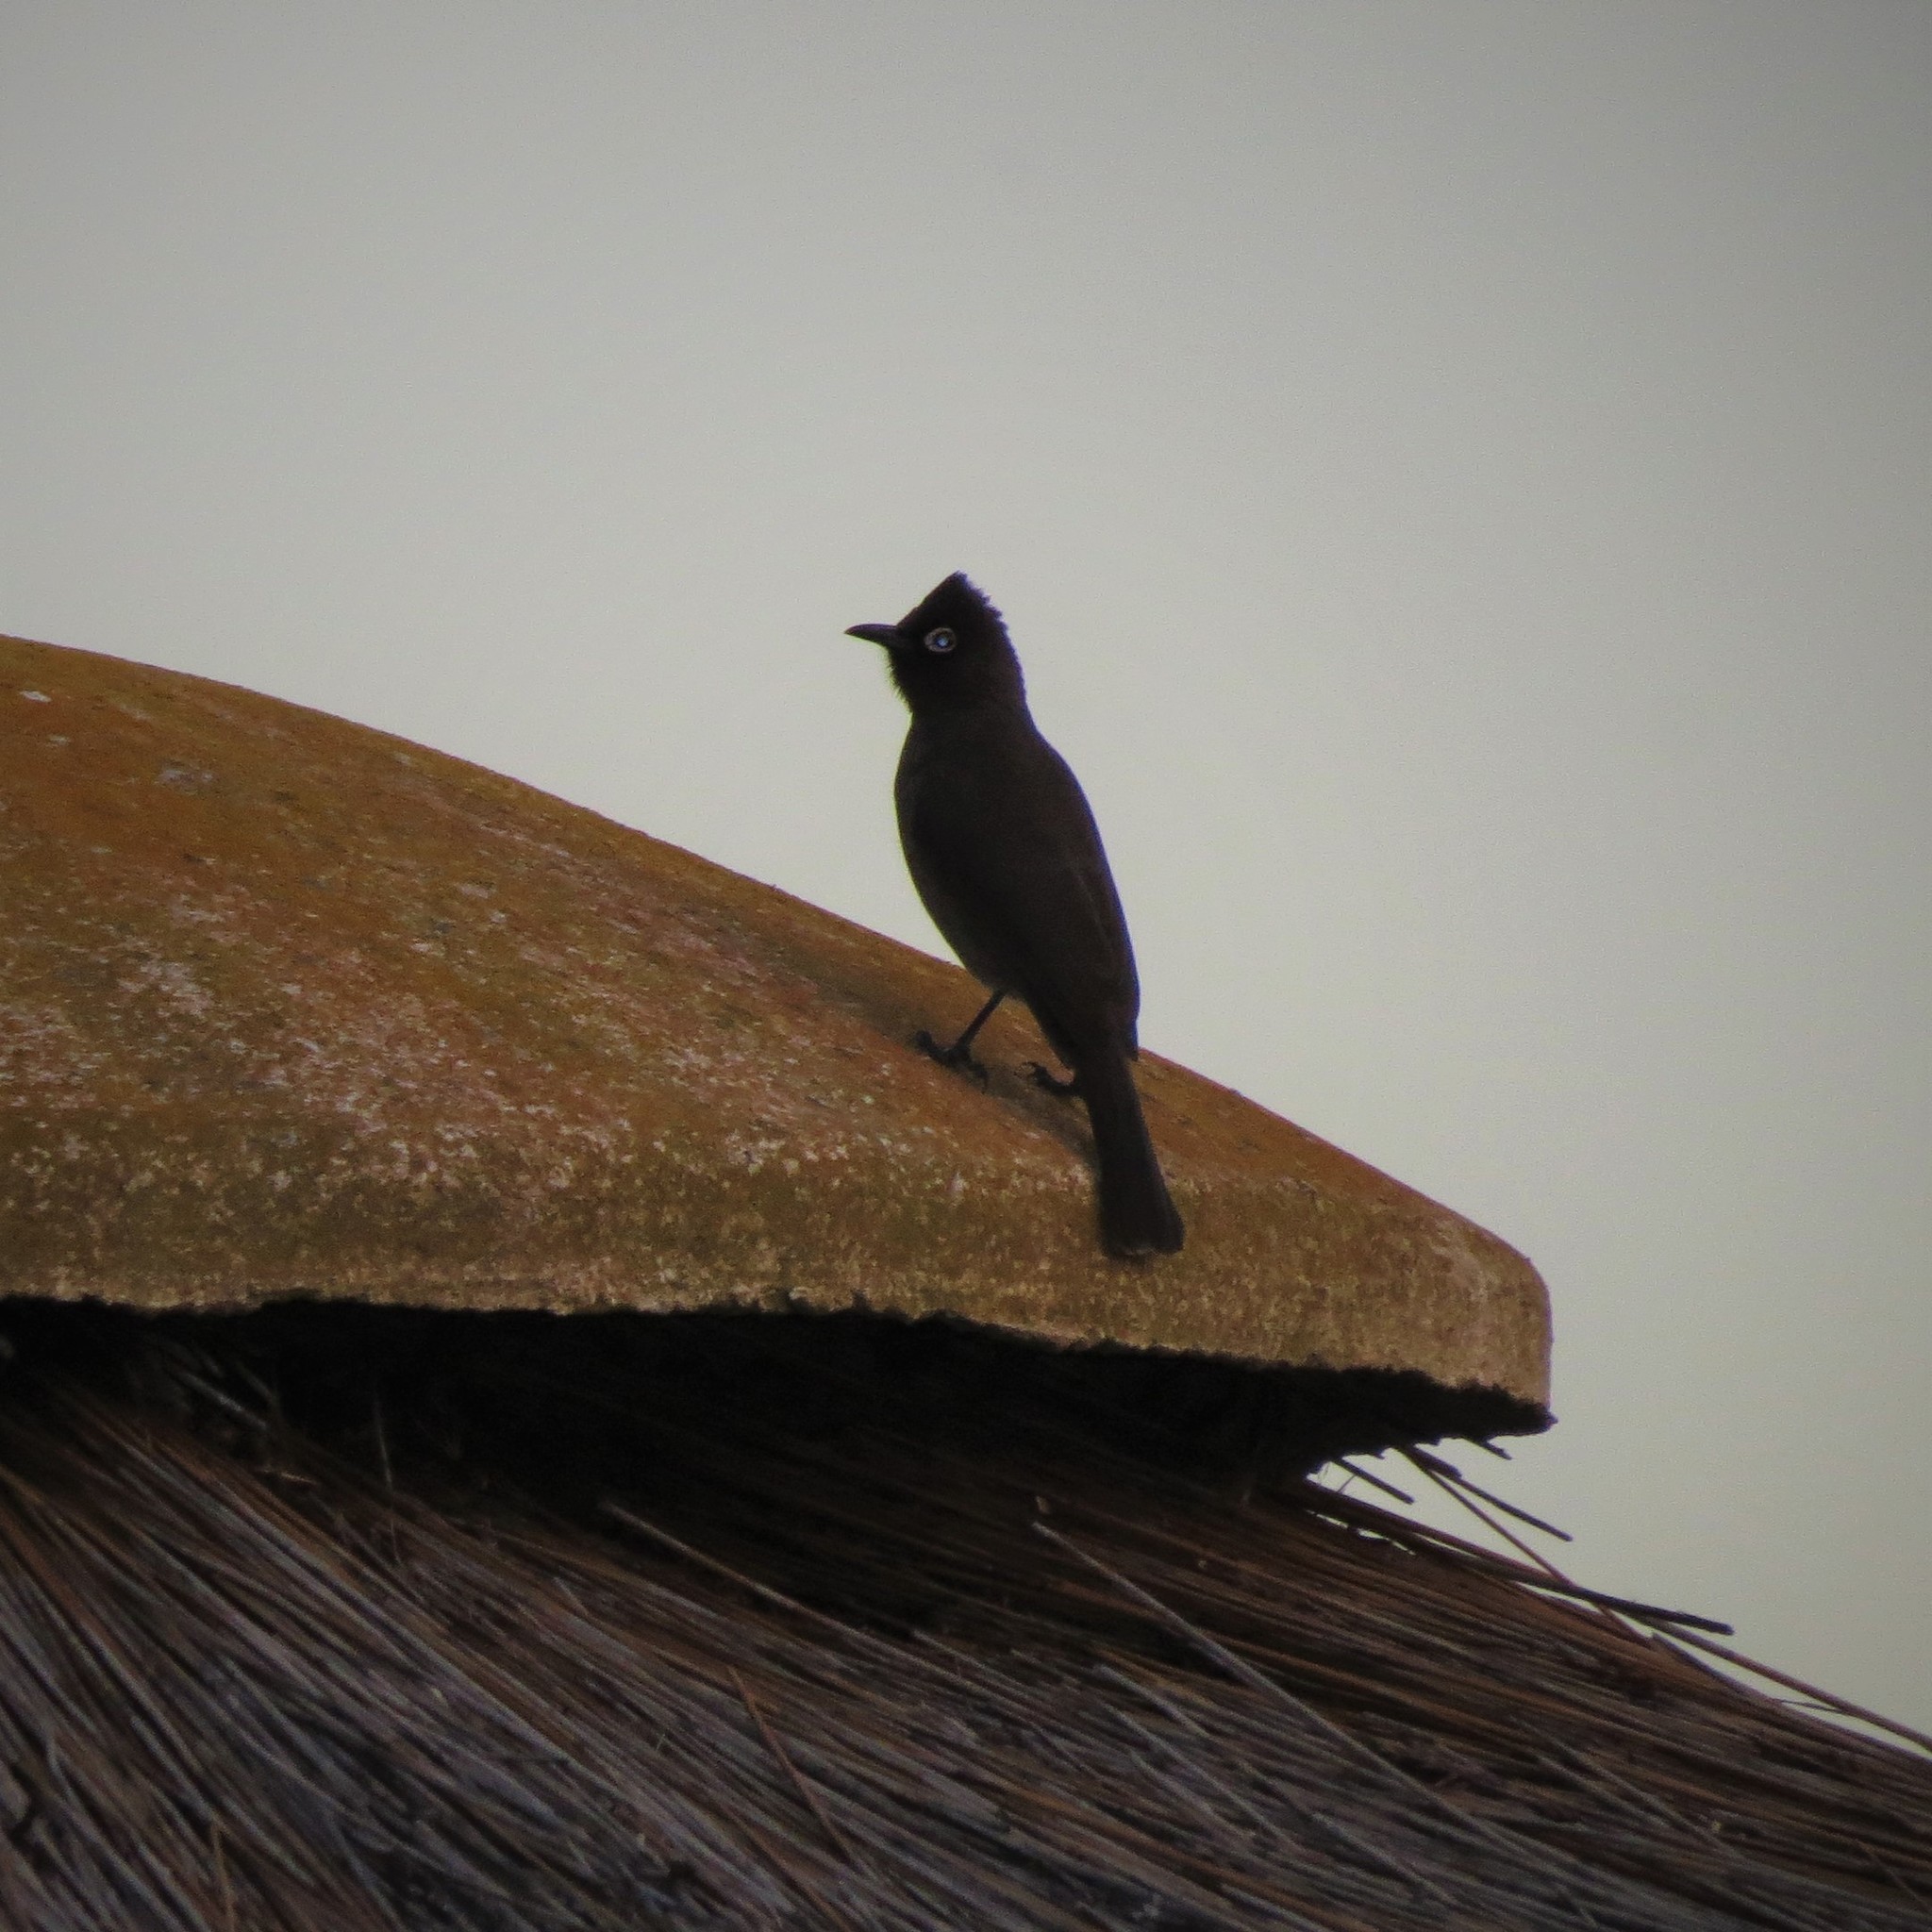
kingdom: Animalia
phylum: Chordata
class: Aves
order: Passeriformes
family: Pycnonotidae
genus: Pycnonotus
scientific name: Pycnonotus capensis
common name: Cape bulbul
